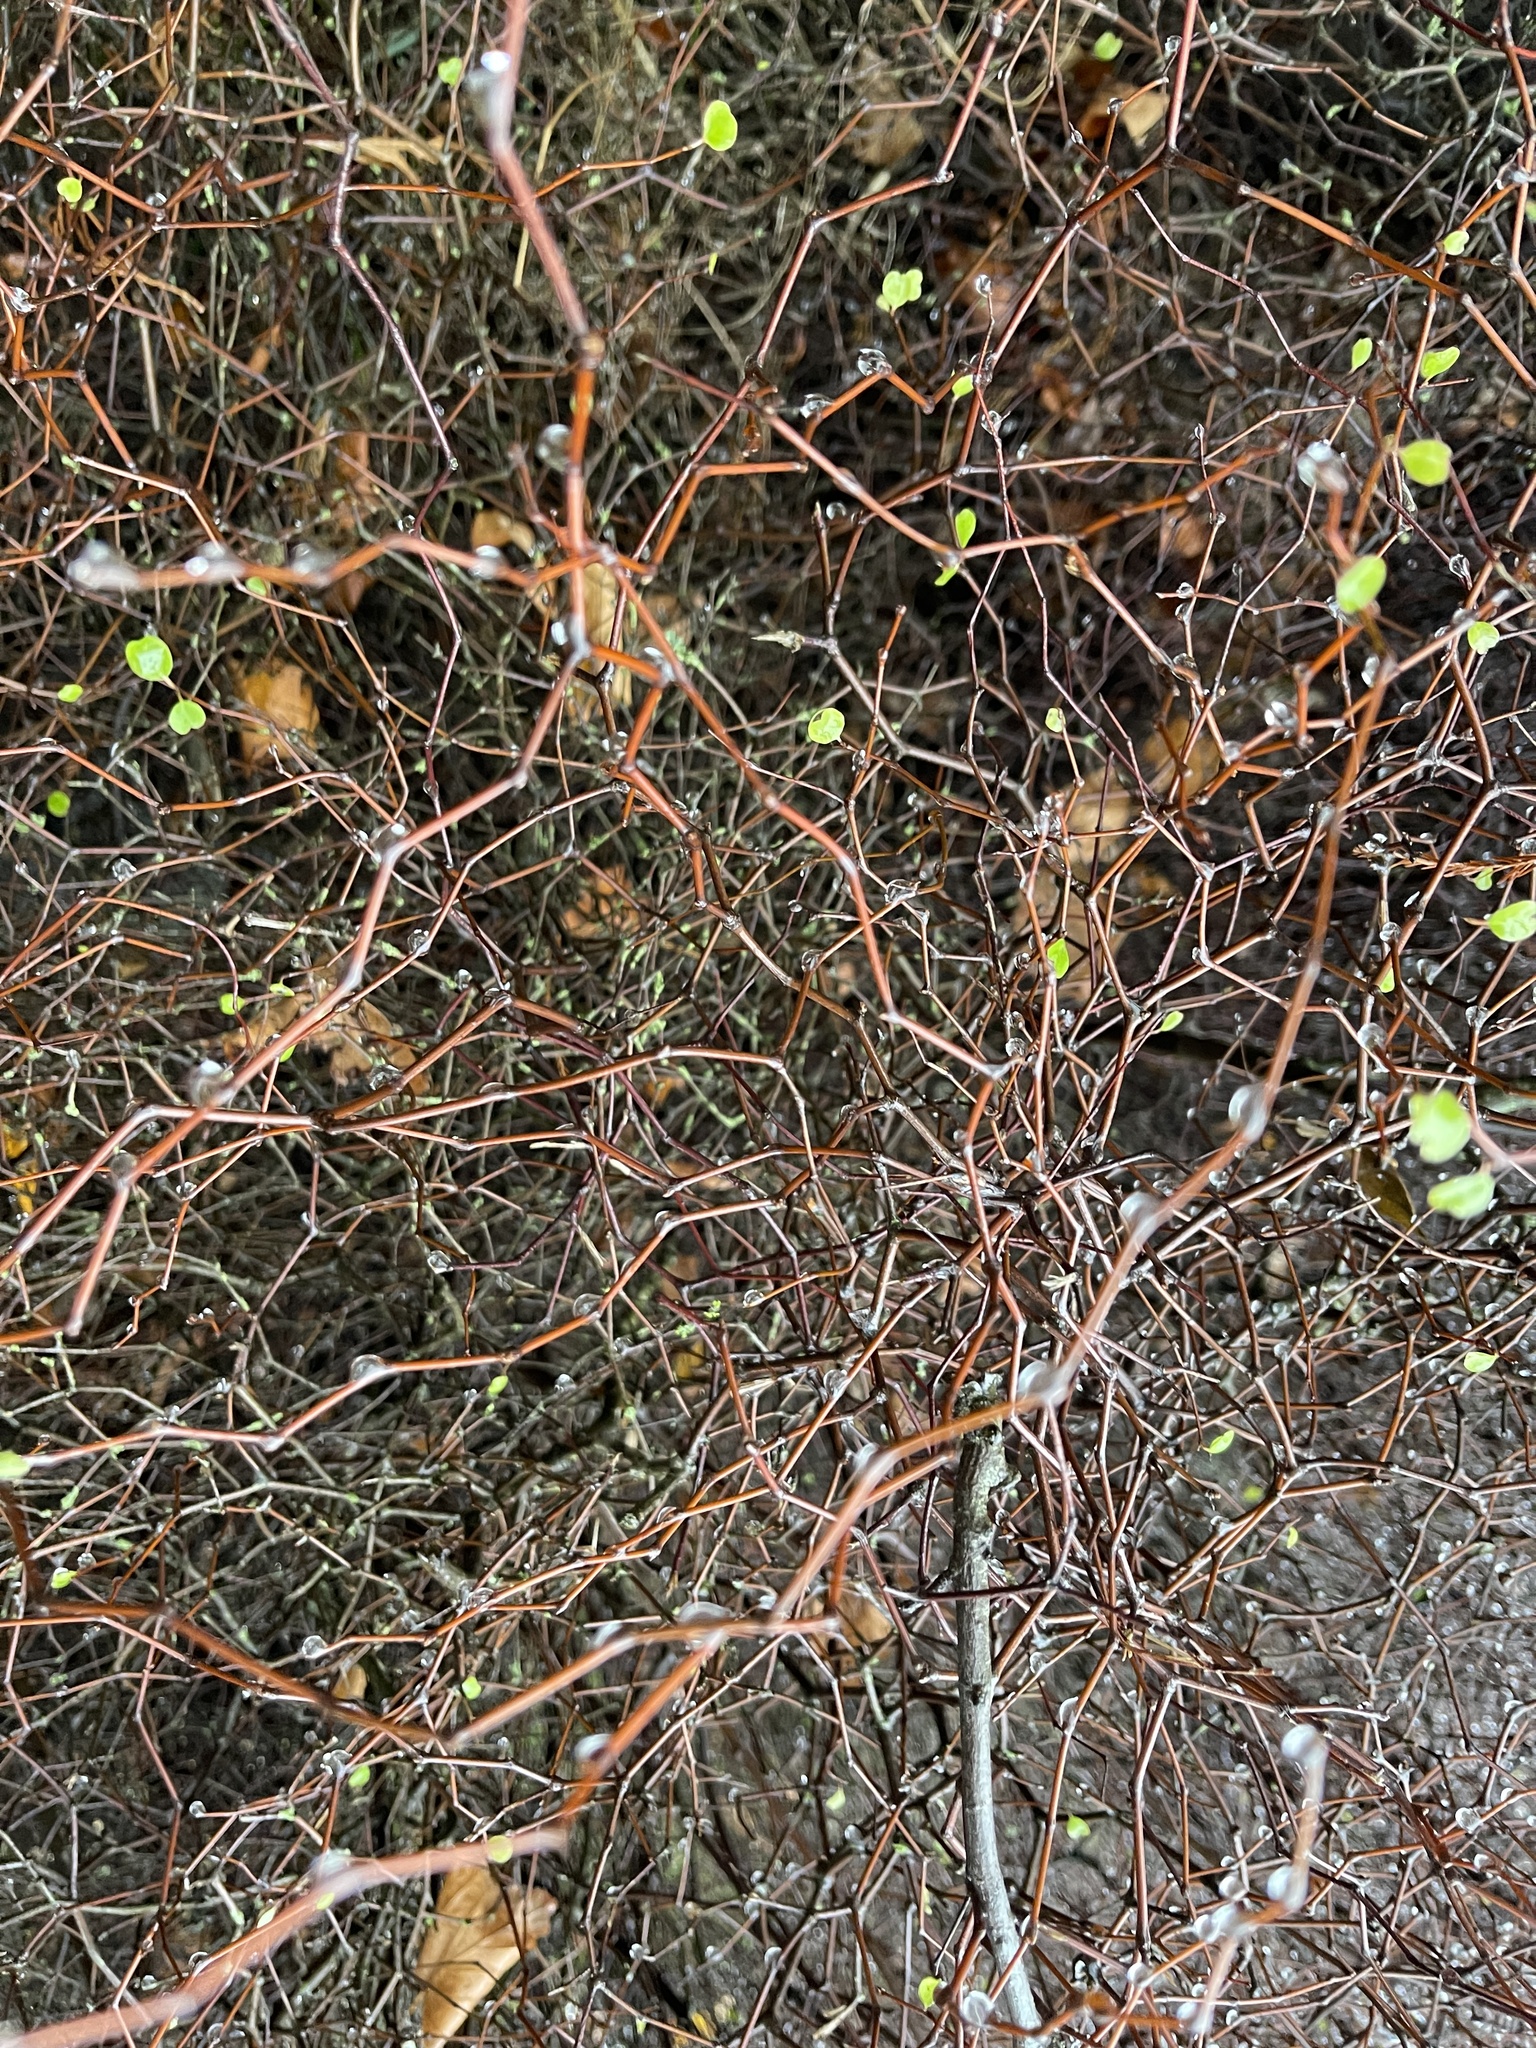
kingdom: Plantae
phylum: Tracheophyta
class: Magnoliopsida
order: Caryophyllales
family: Polygonaceae
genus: Muehlenbeckia
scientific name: Muehlenbeckia astonii
